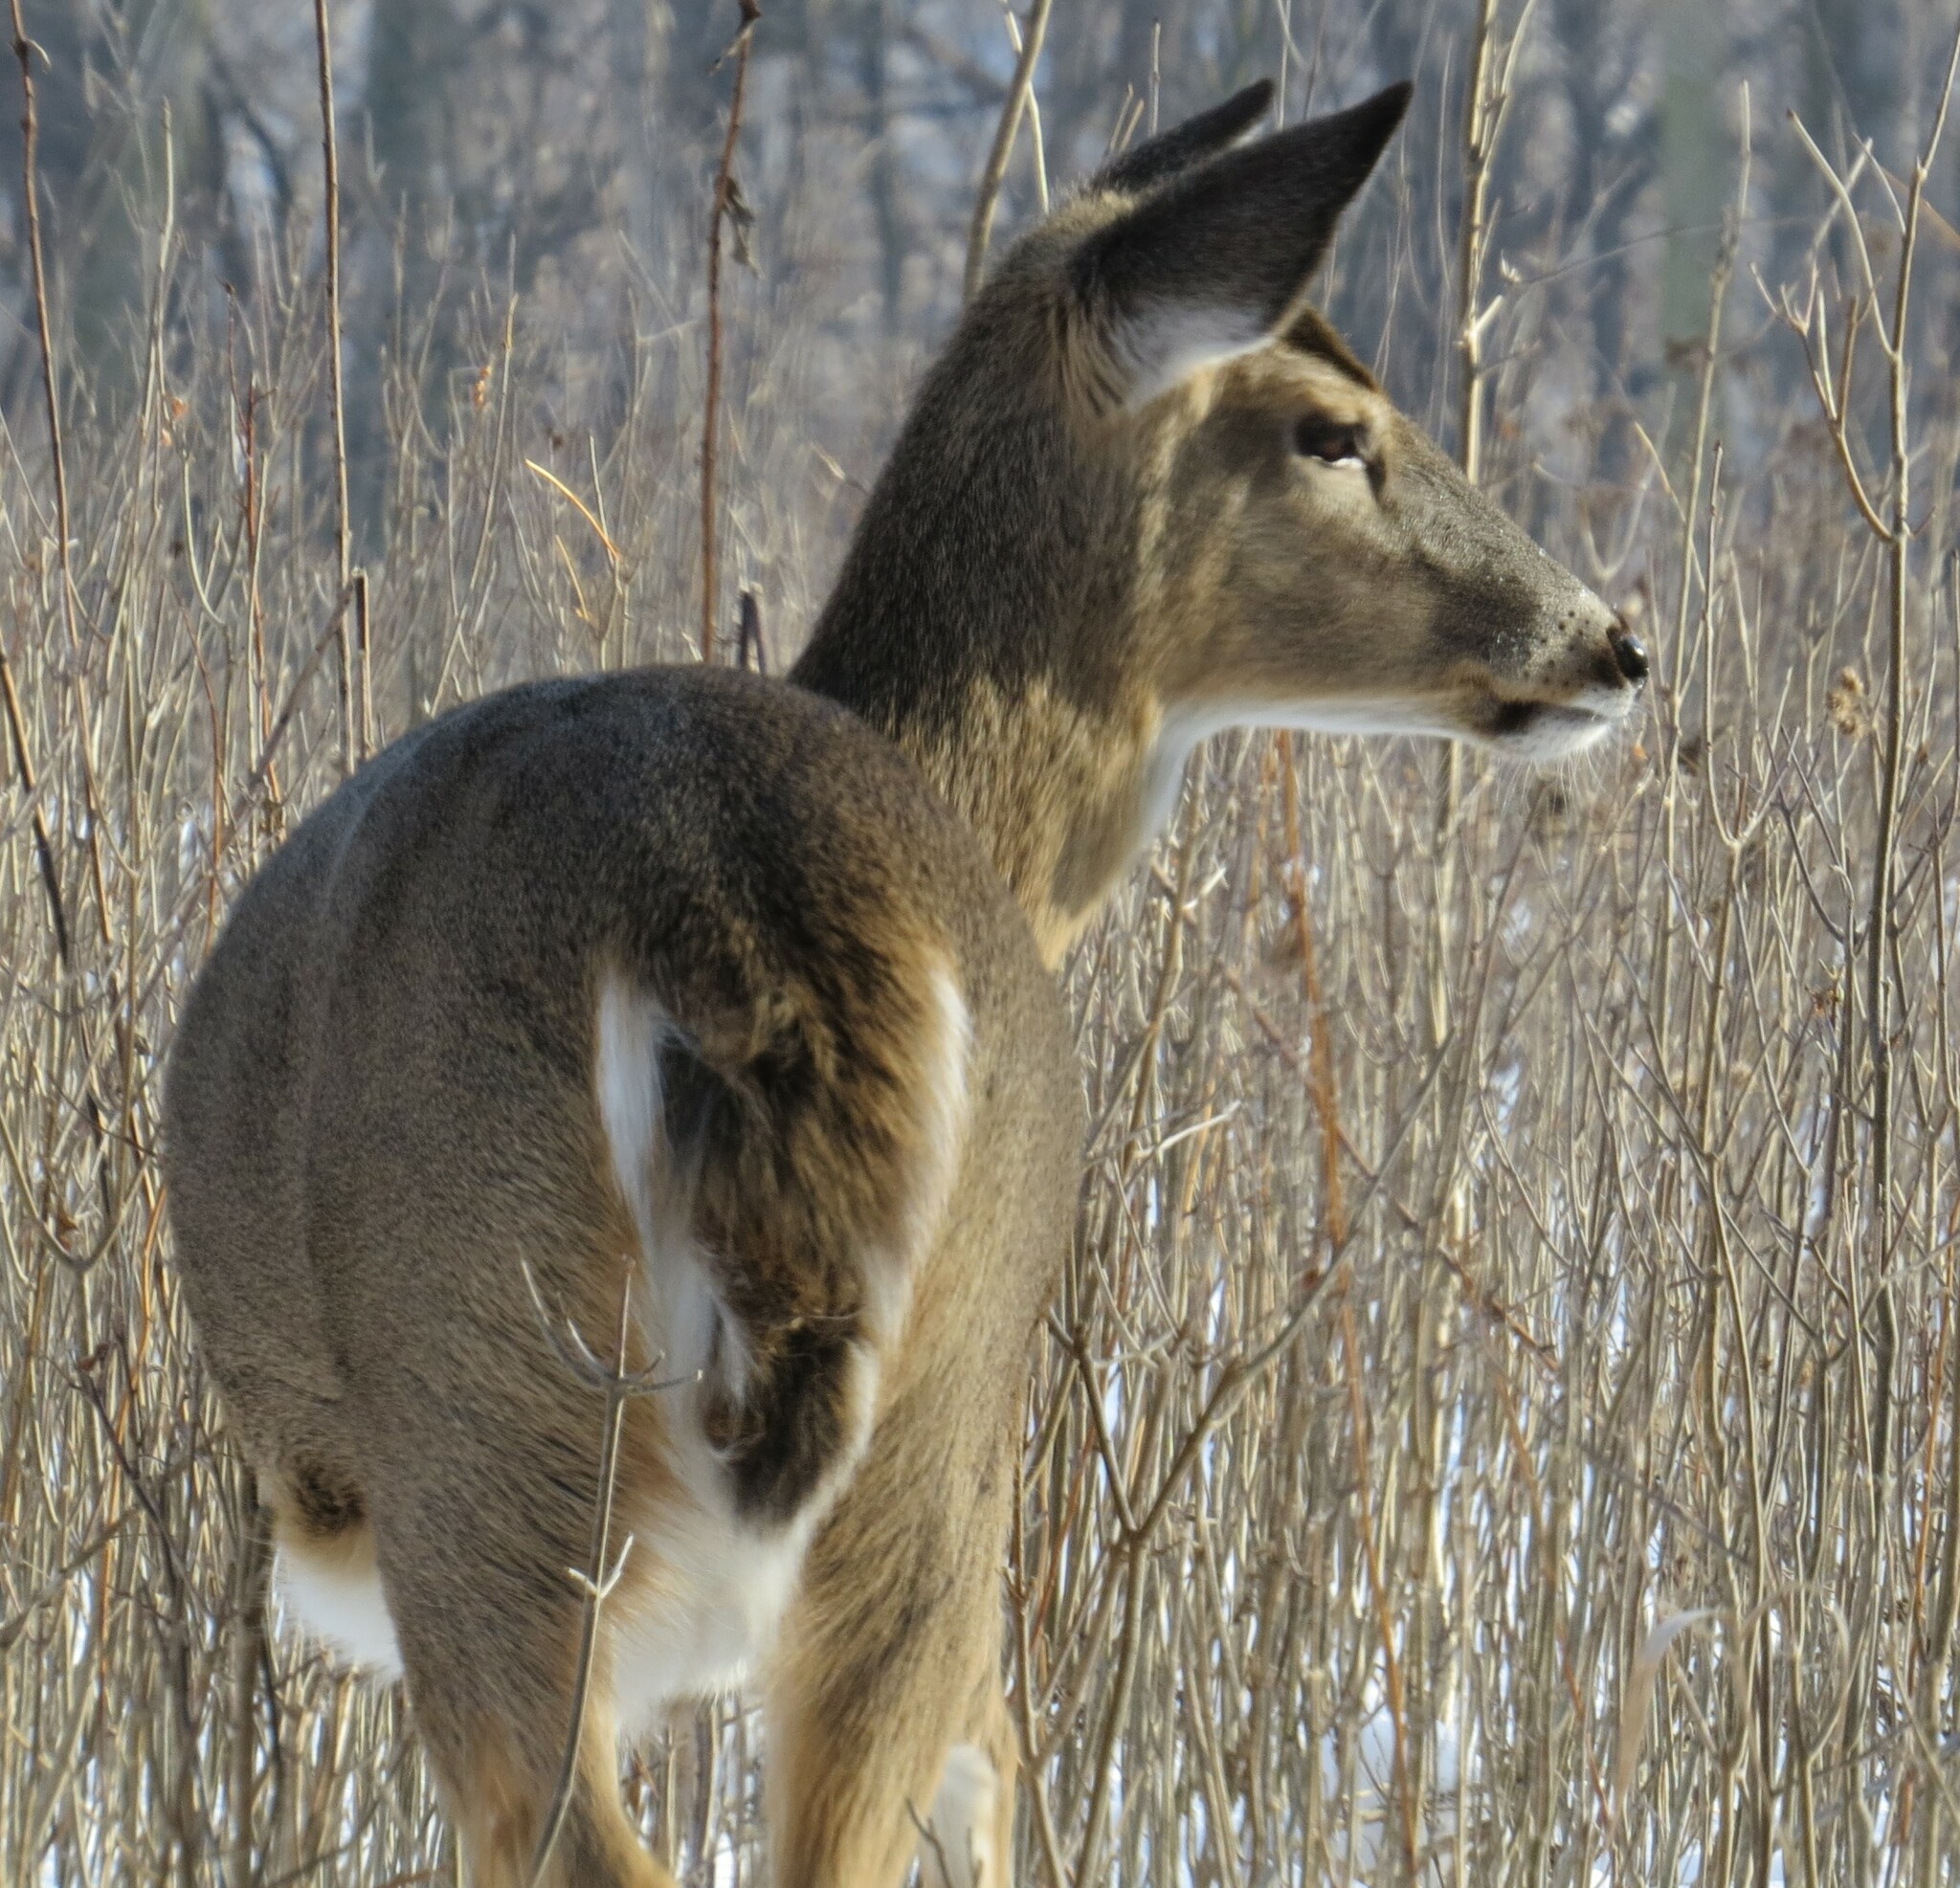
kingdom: Animalia
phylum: Chordata
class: Mammalia
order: Artiodactyla
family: Cervidae
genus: Odocoileus
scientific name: Odocoileus virginianus
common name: White-tailed deer
